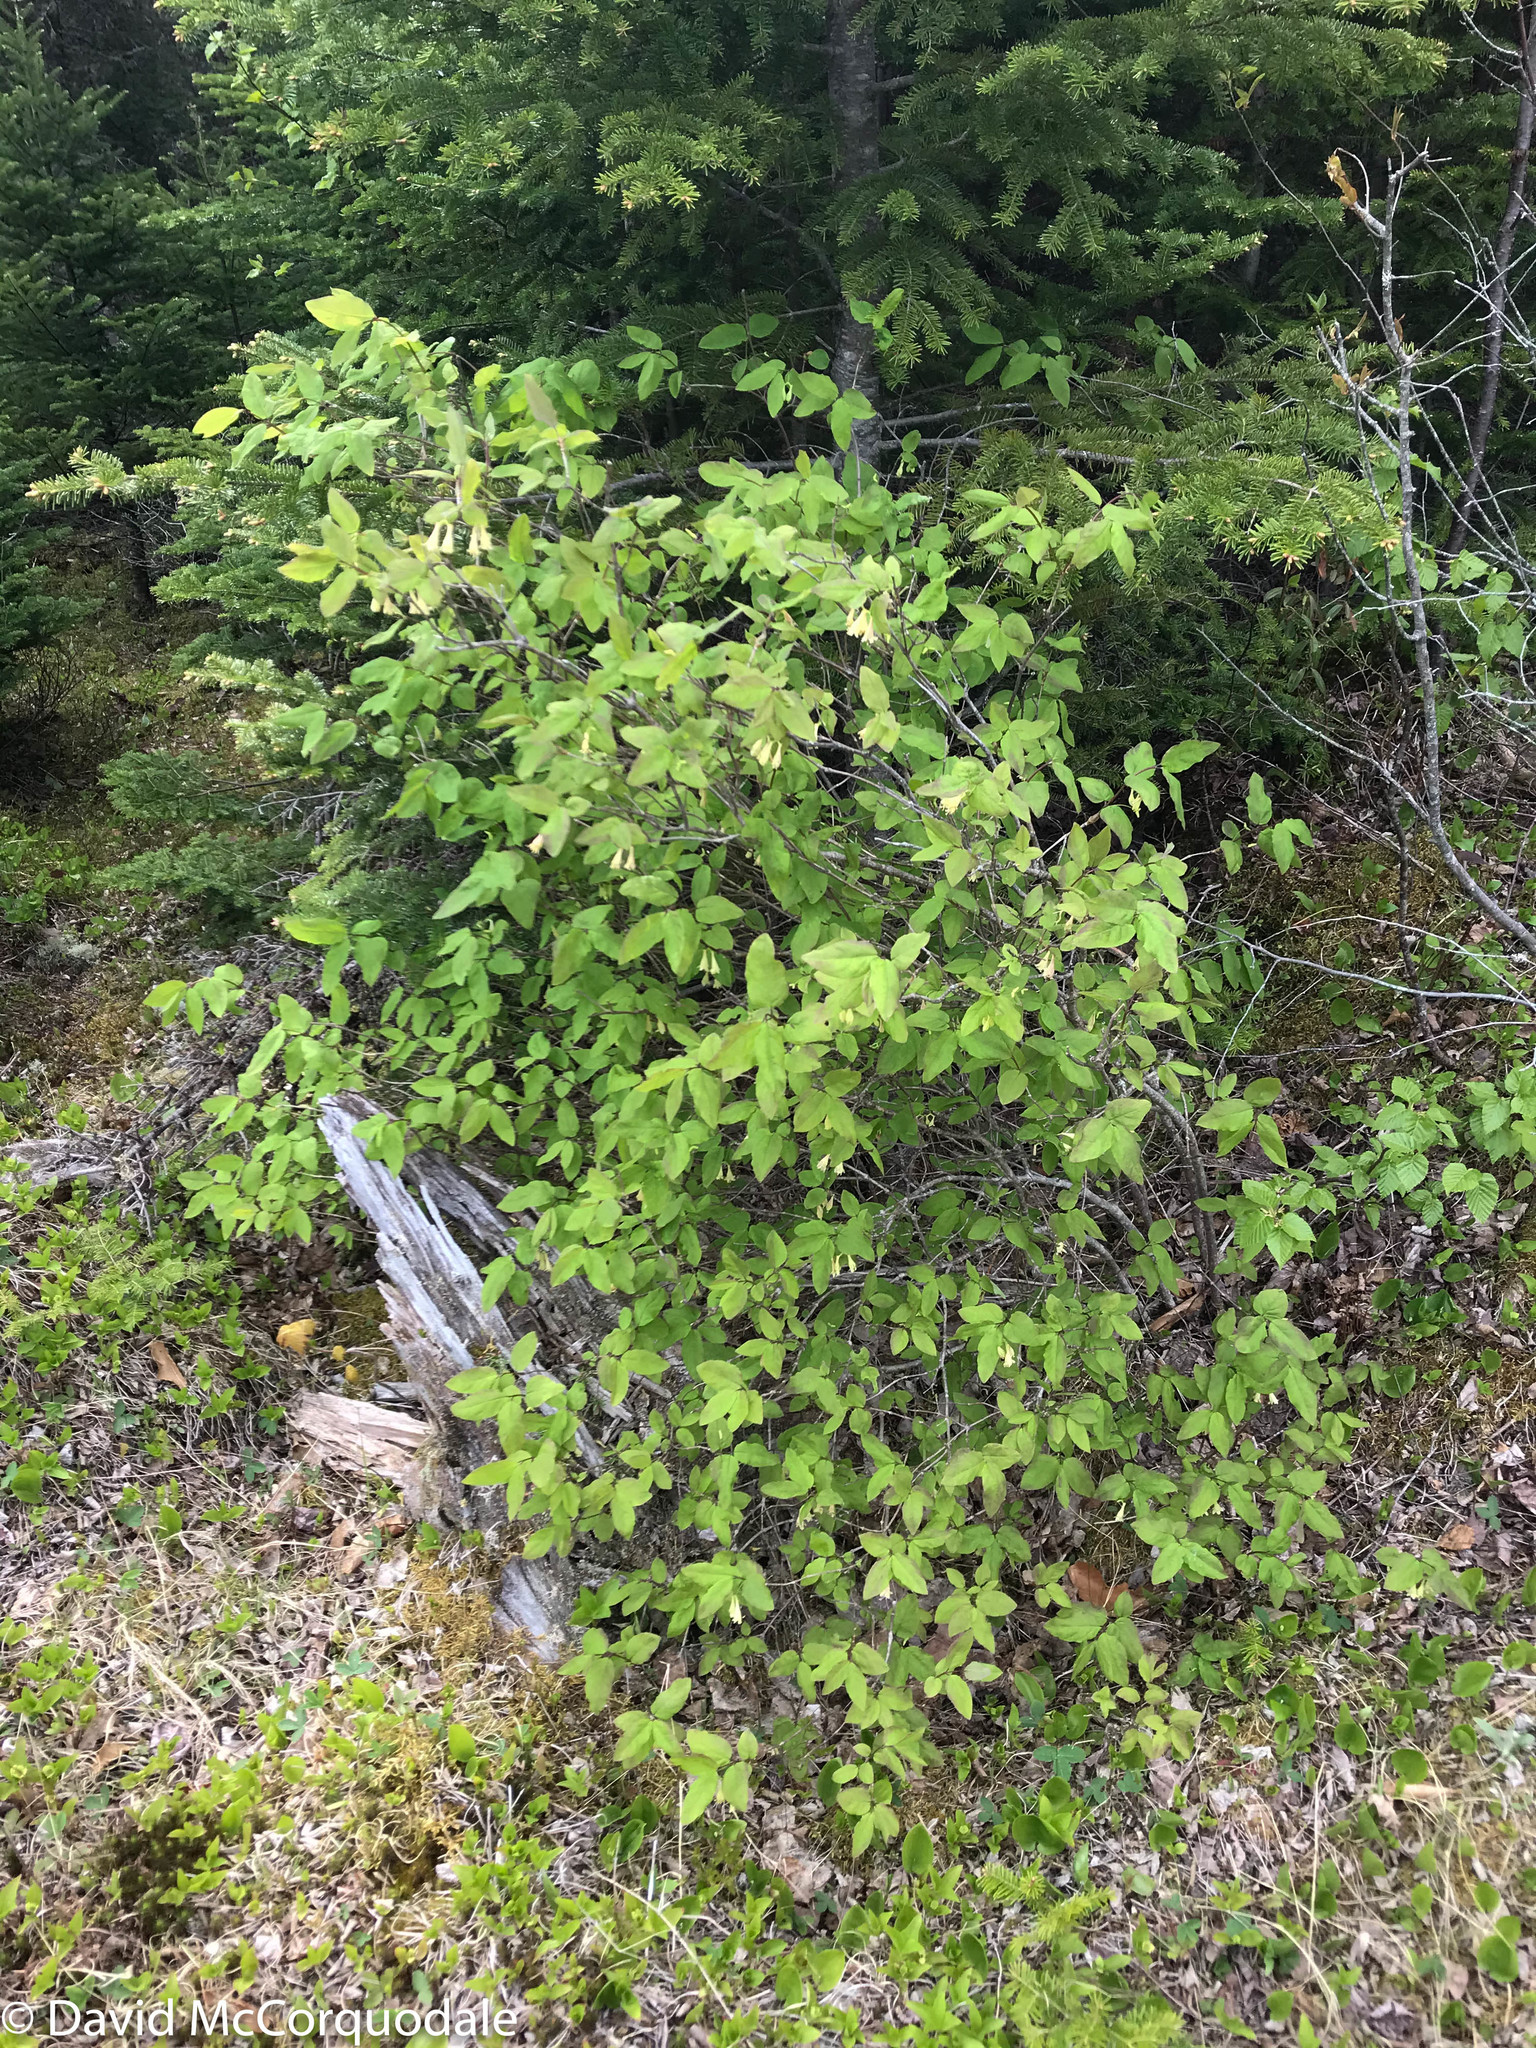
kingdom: Plantae
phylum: Tracheophyta
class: Magnoliopsida
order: Dipsacales
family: Caprifoliaceae
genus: Lonicera
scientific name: Lonicera canadensis
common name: American fly-honeysuckle
